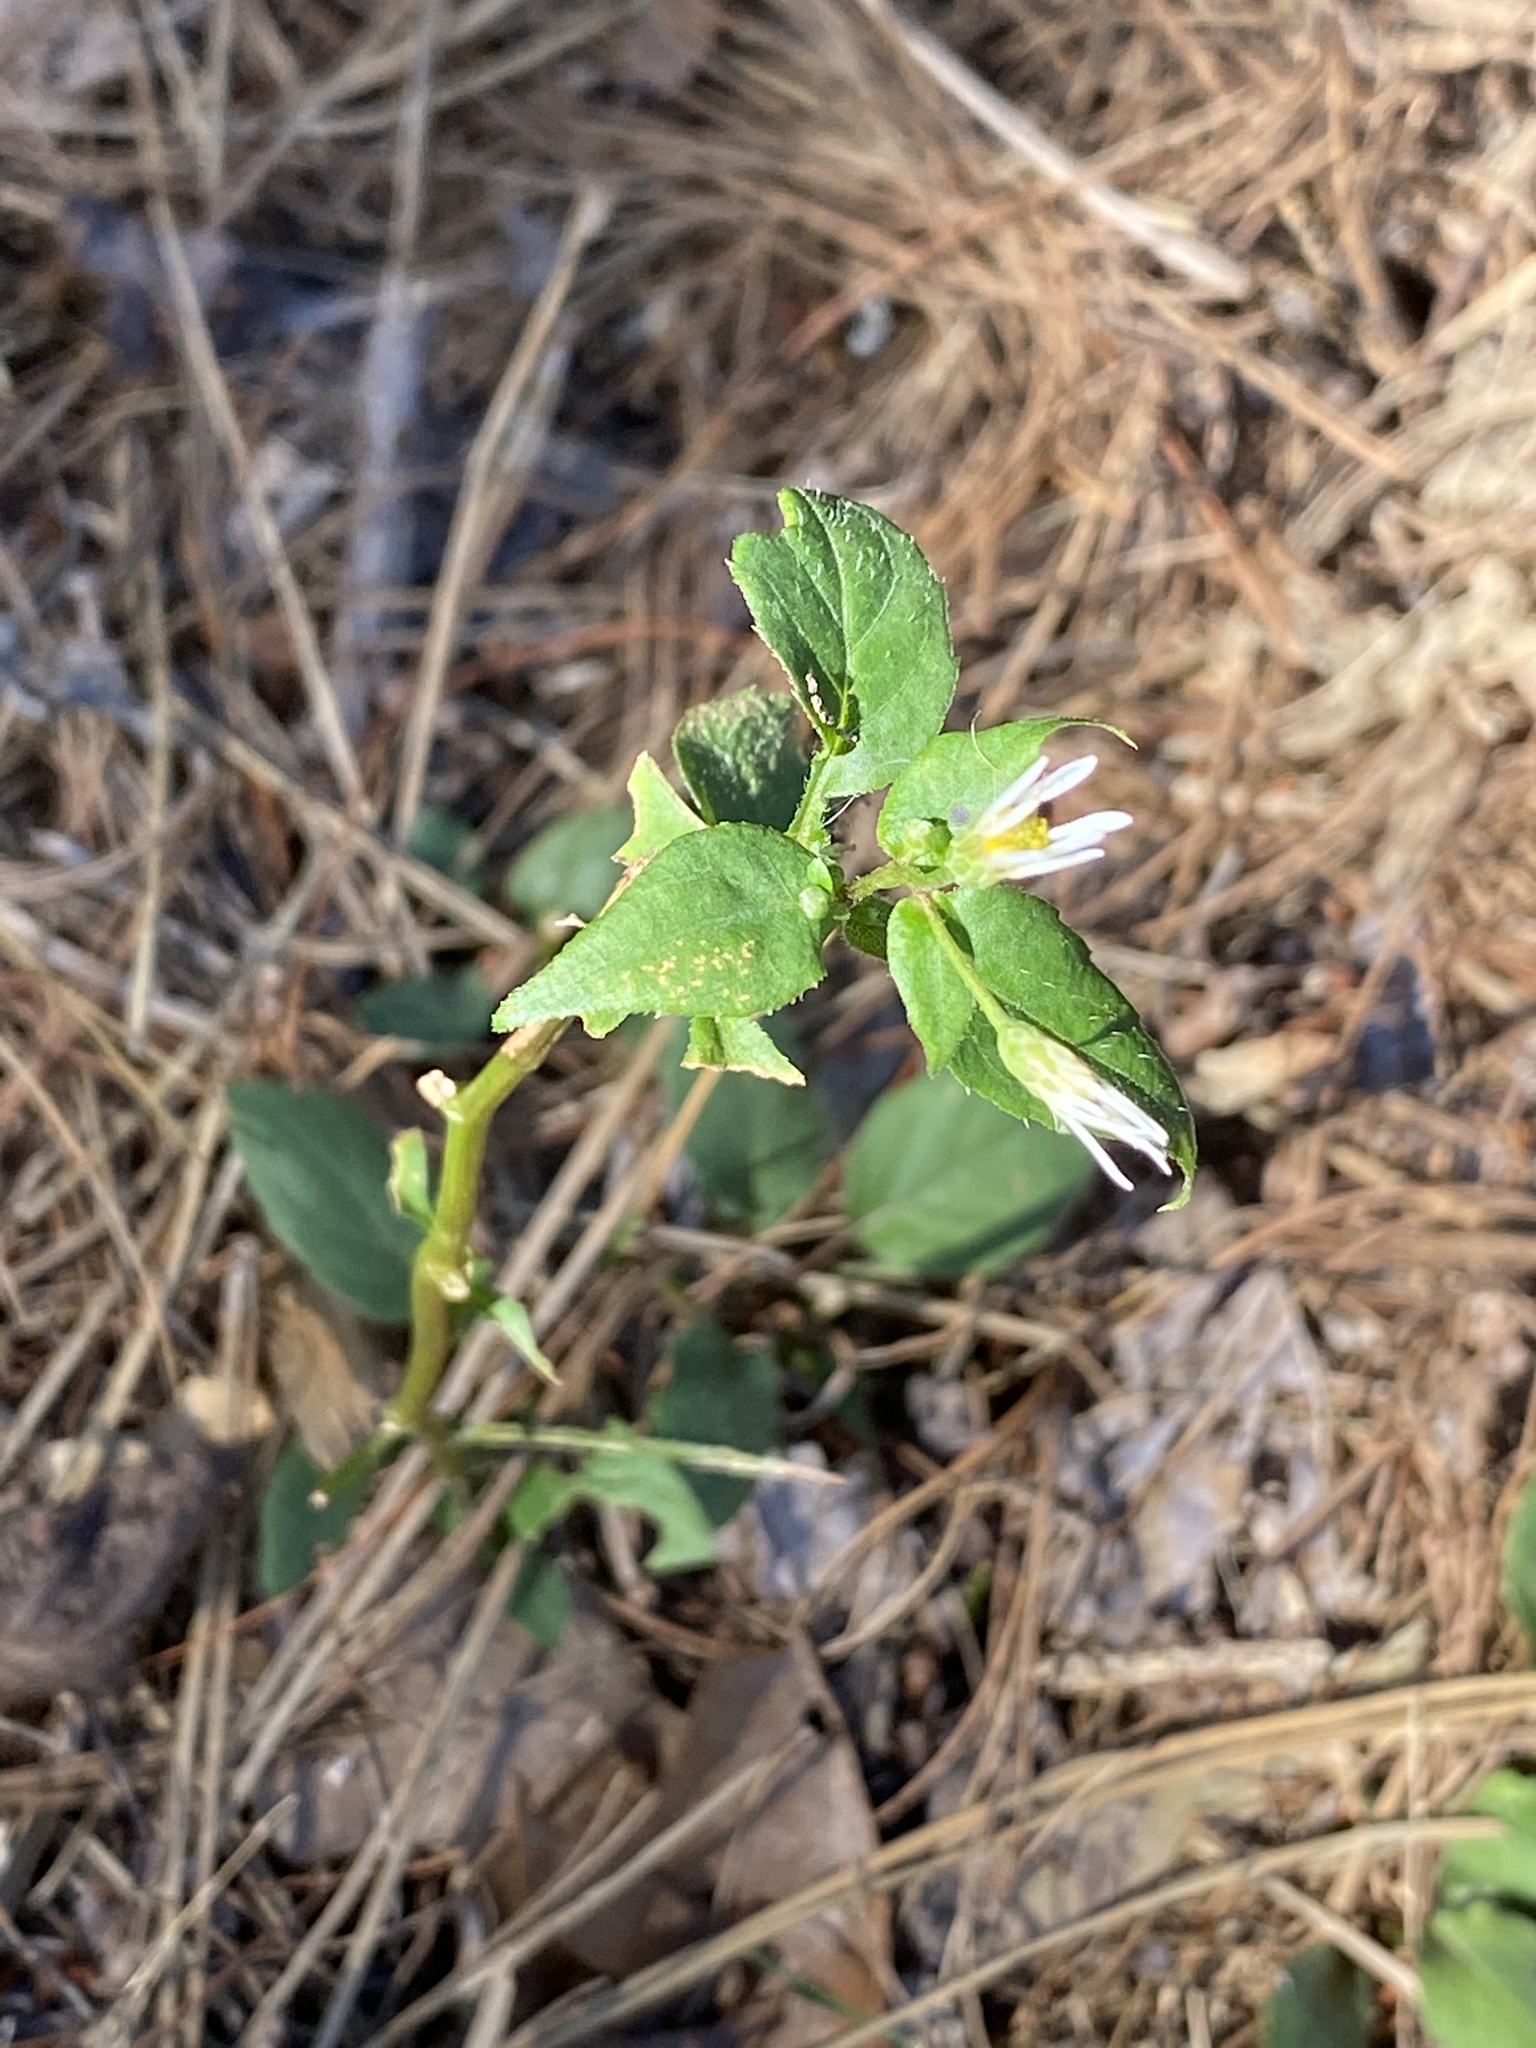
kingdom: Plantae
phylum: Tracheophyta
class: Magnoliopsida
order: Asterales
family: Asteraceae
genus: Eurybia
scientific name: Eurybia divaricata
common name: White wood aster
